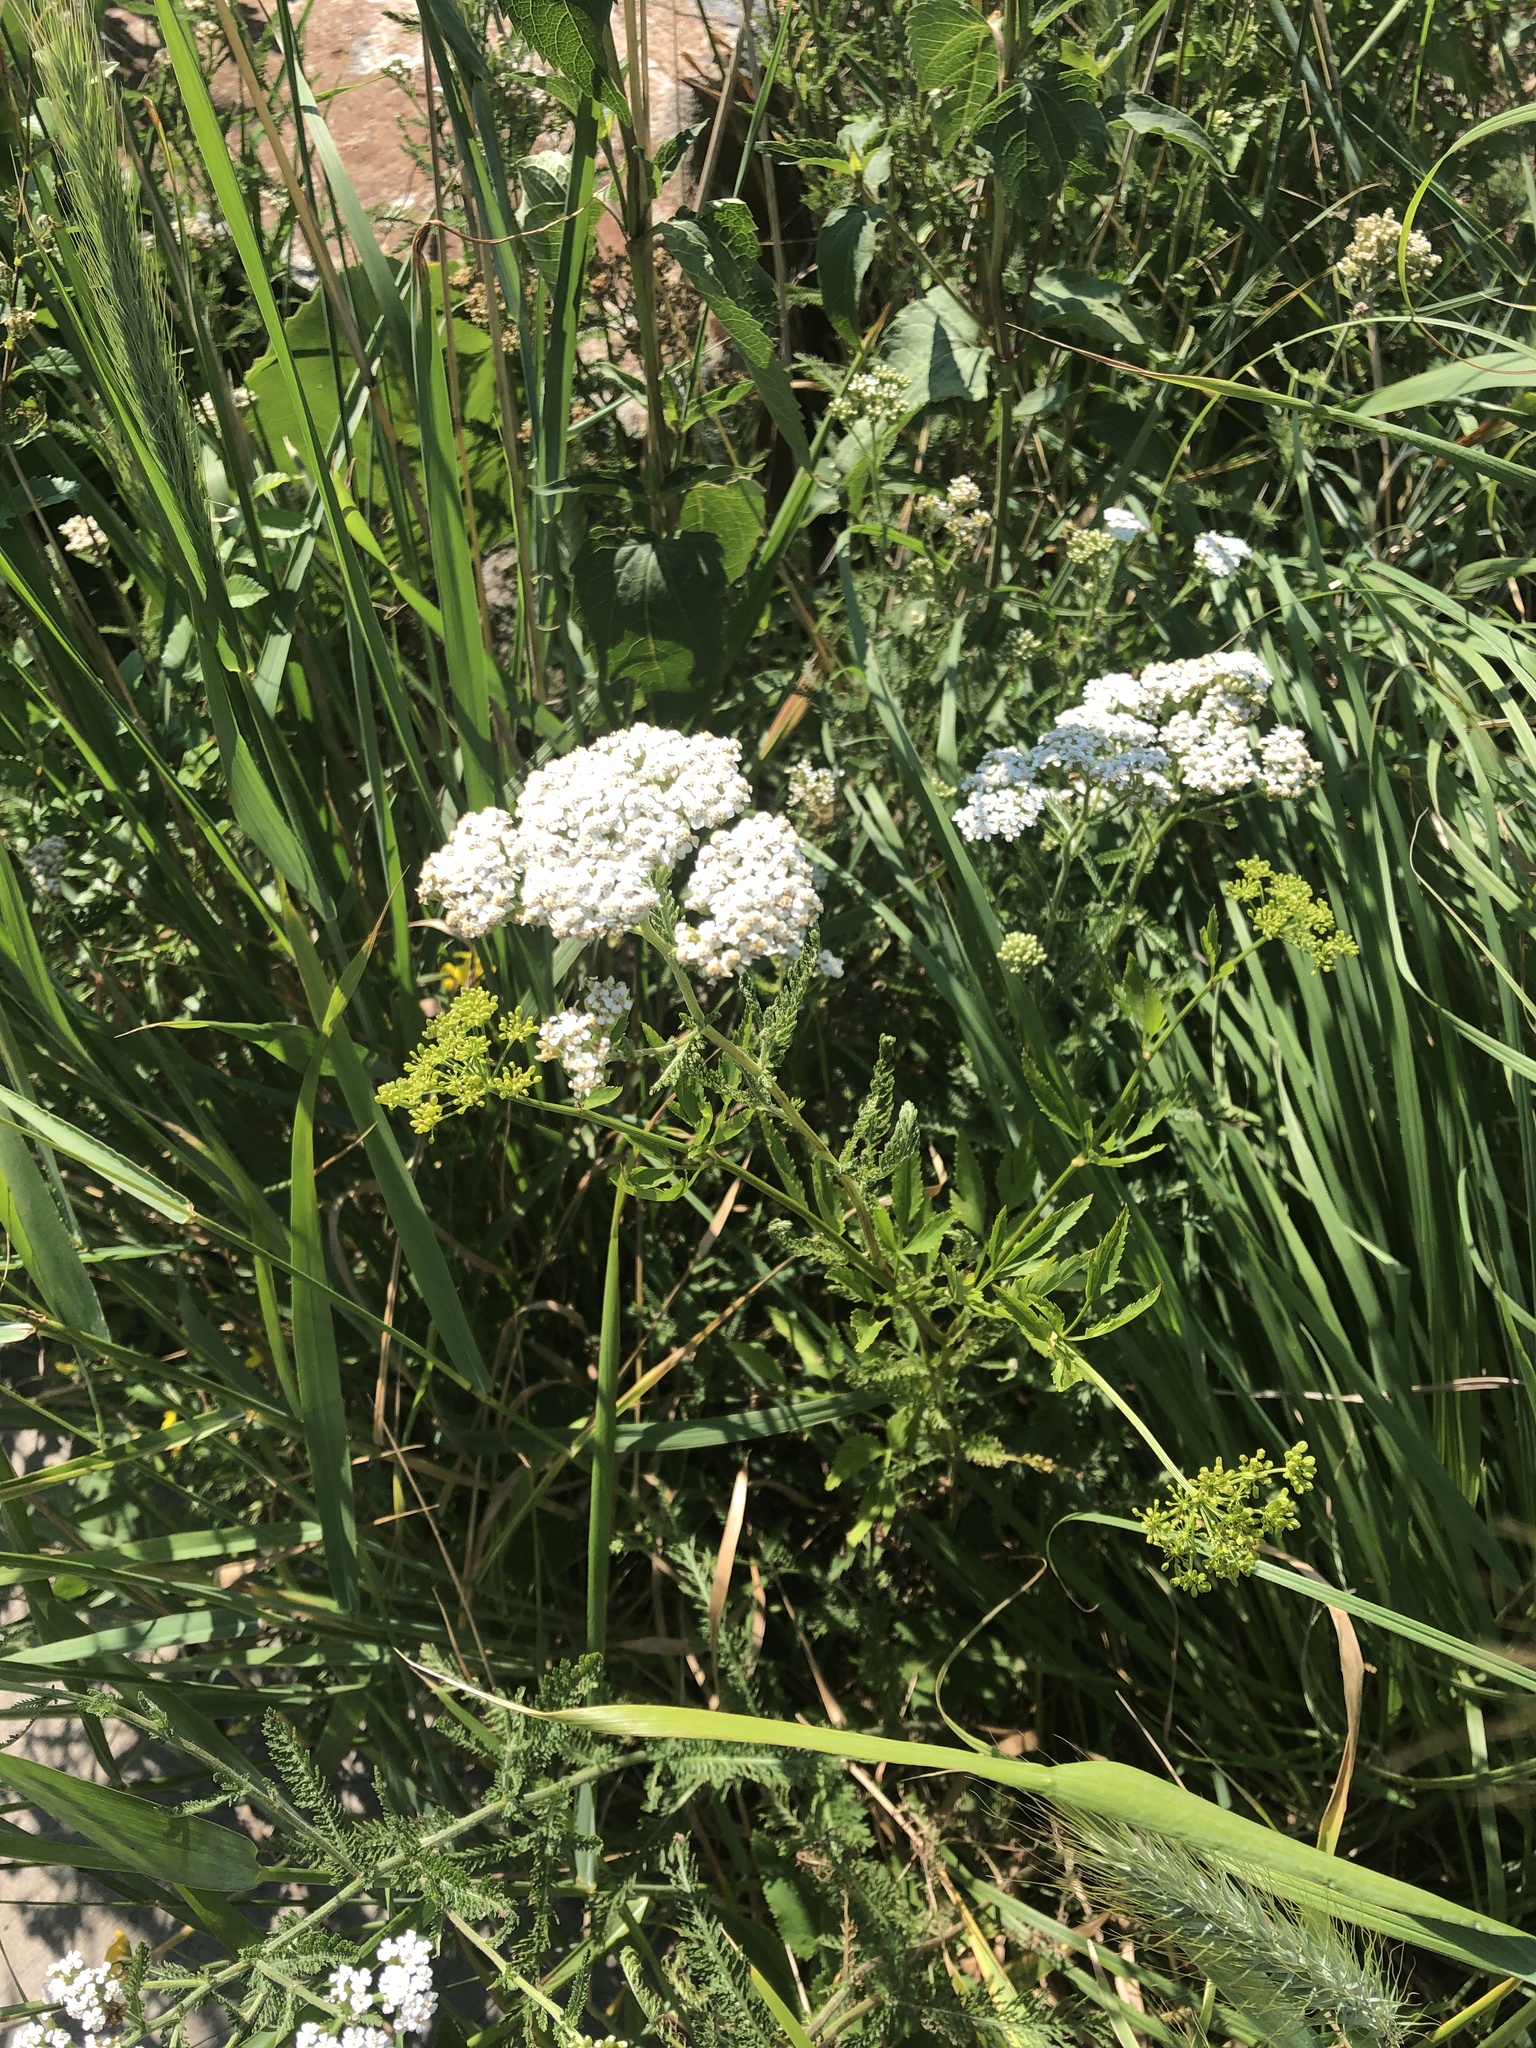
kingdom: Plantae
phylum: Tracheophyta
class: Magnoliopsida
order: Asterales
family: Asteraceae
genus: Achillea
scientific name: Achillea millefolium
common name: Yarrow
